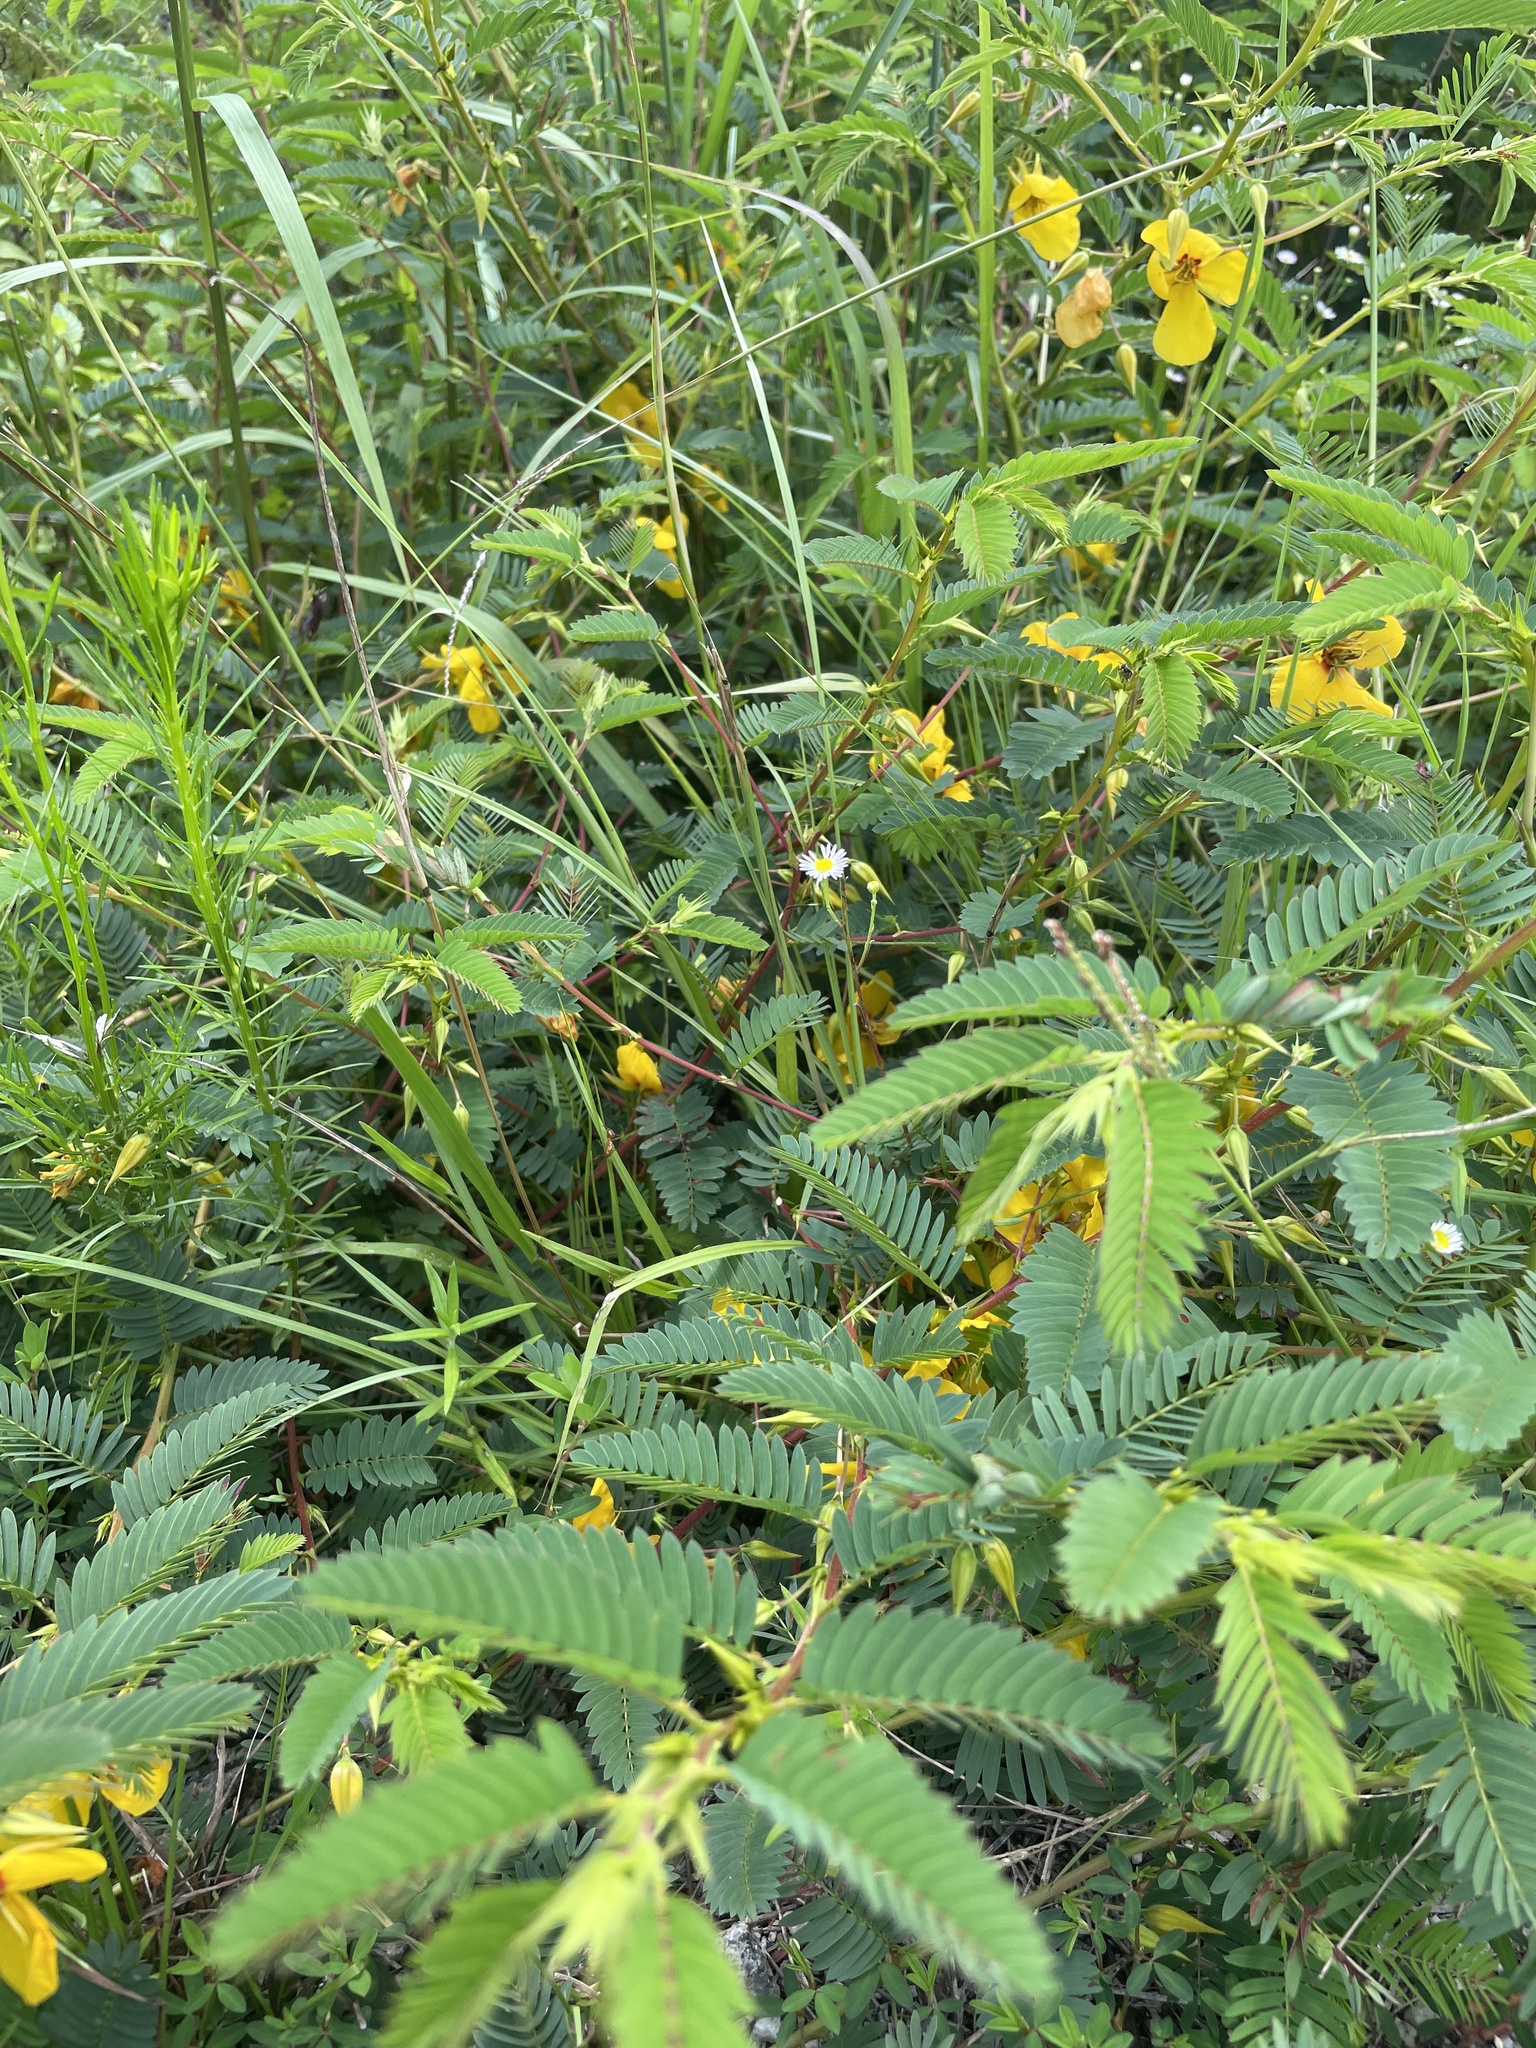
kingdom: Plantae
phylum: Tracheophyta
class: Magnoliopsida
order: Fabales
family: Fabaceae
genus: Chamaecrista
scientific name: Chamaecrista fasciculata
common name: Golden cassia
